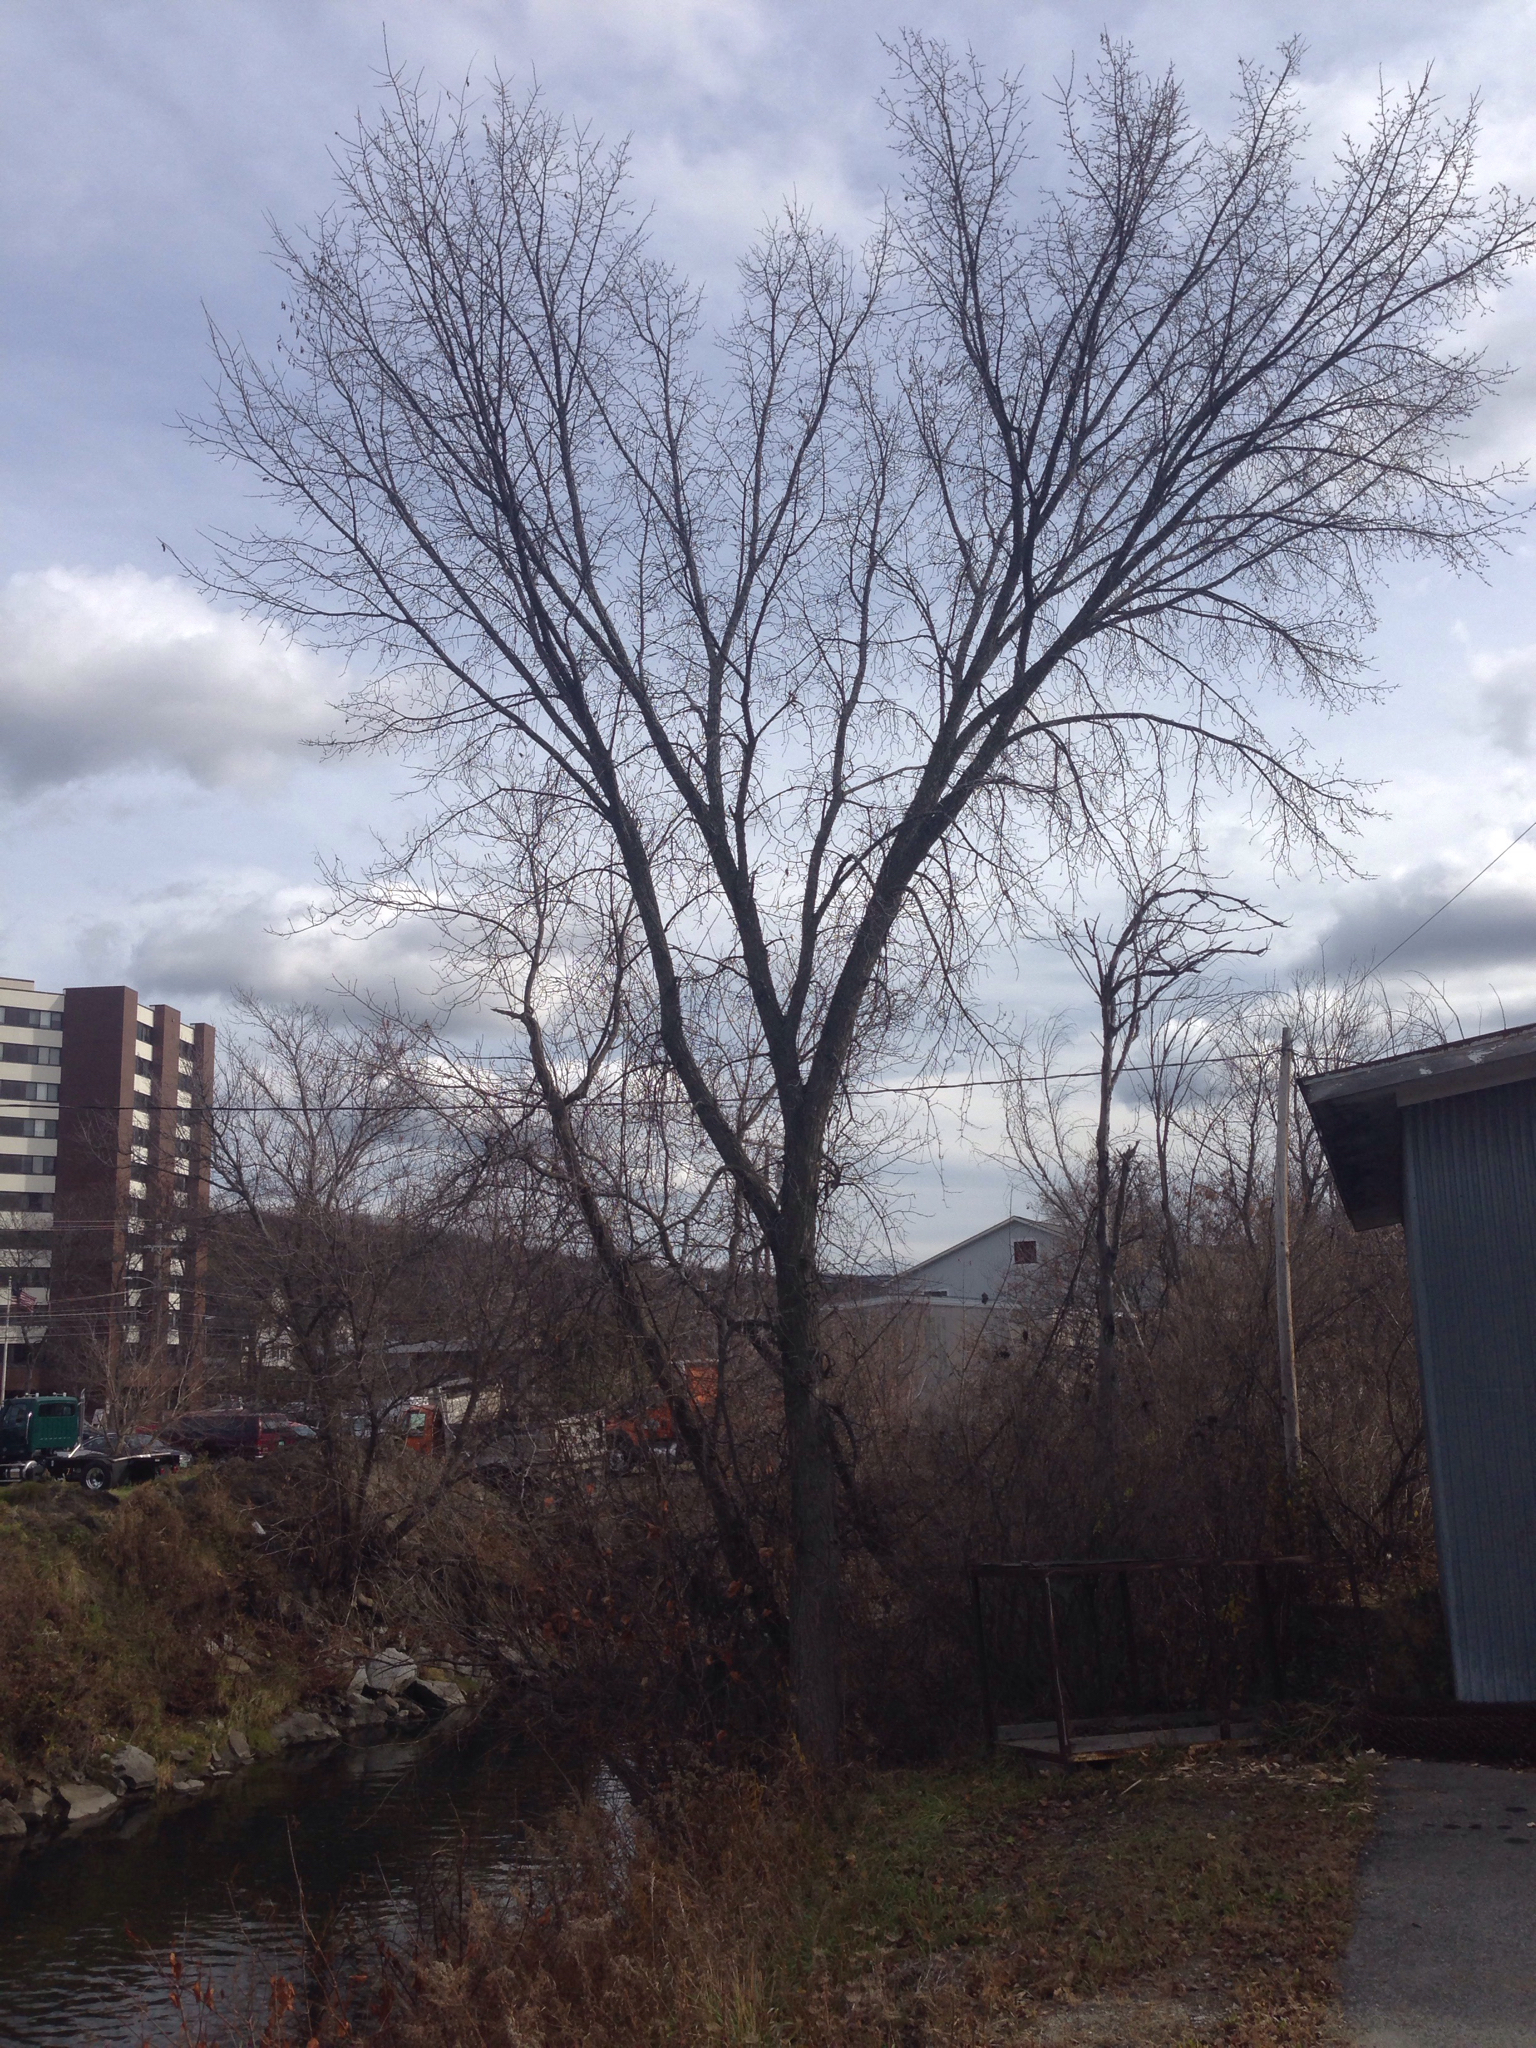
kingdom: Plantae
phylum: Tracheophyta
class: Magnoliopsida
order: Rosales
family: Ulmaceae
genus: Ulmus
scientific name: Ulmus americana
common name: American elm
